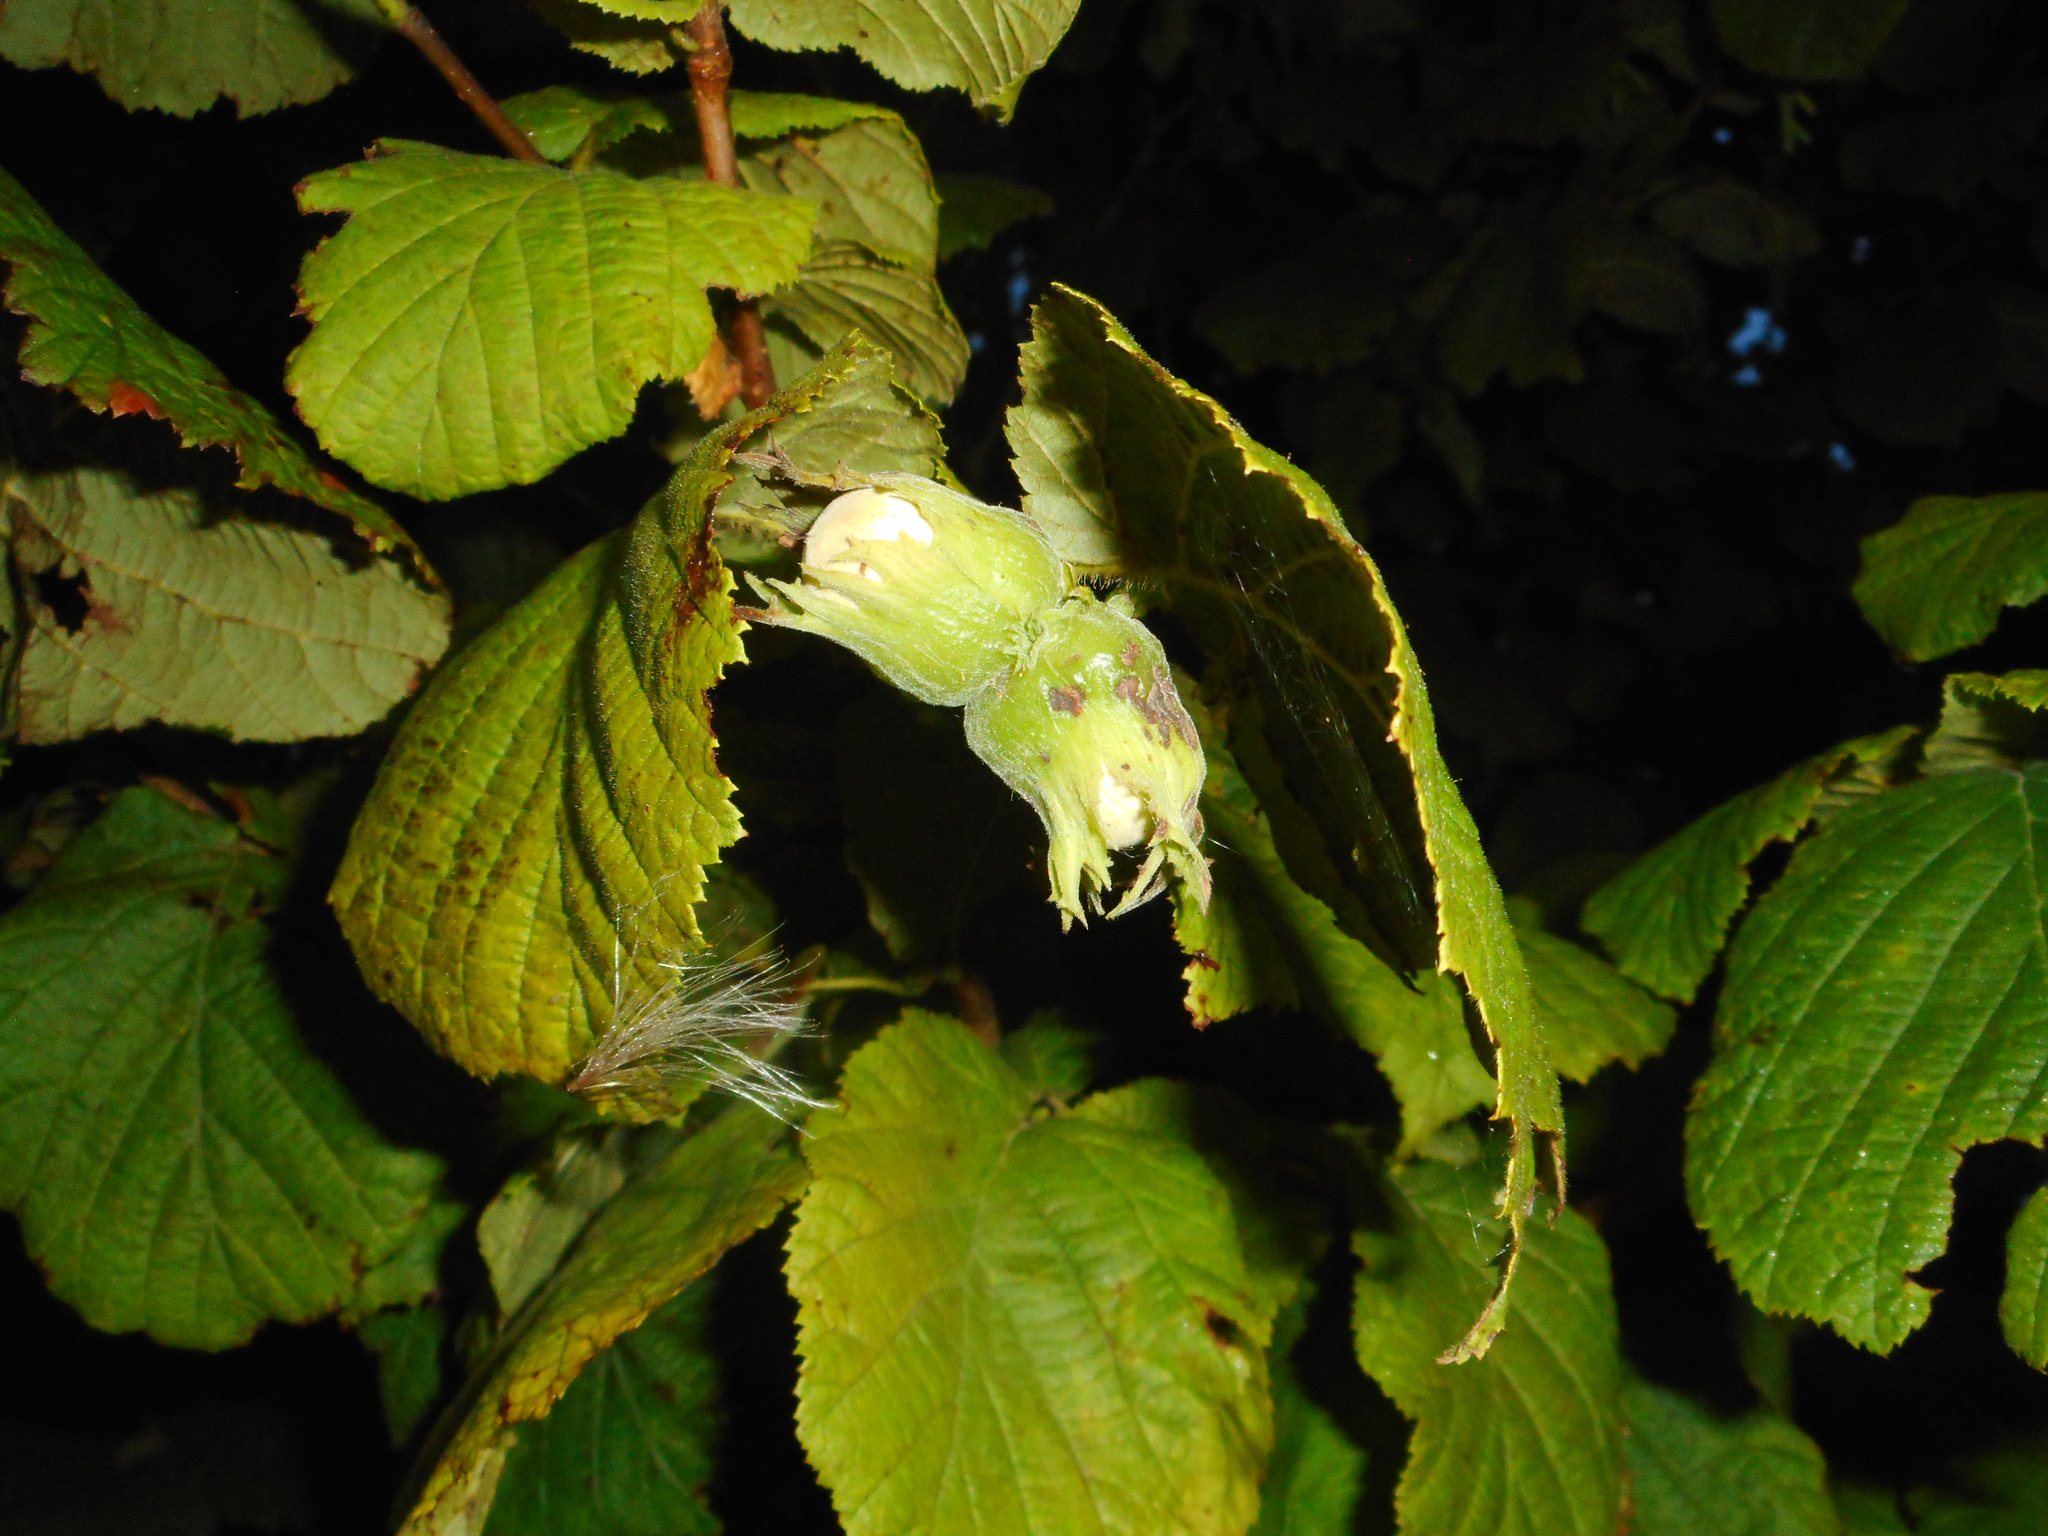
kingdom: Plantae
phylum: Tracheophyta
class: Magnoliopsida
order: Fagales
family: Betulaceae
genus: Corylus
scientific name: Corylus avellana
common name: European hazel
